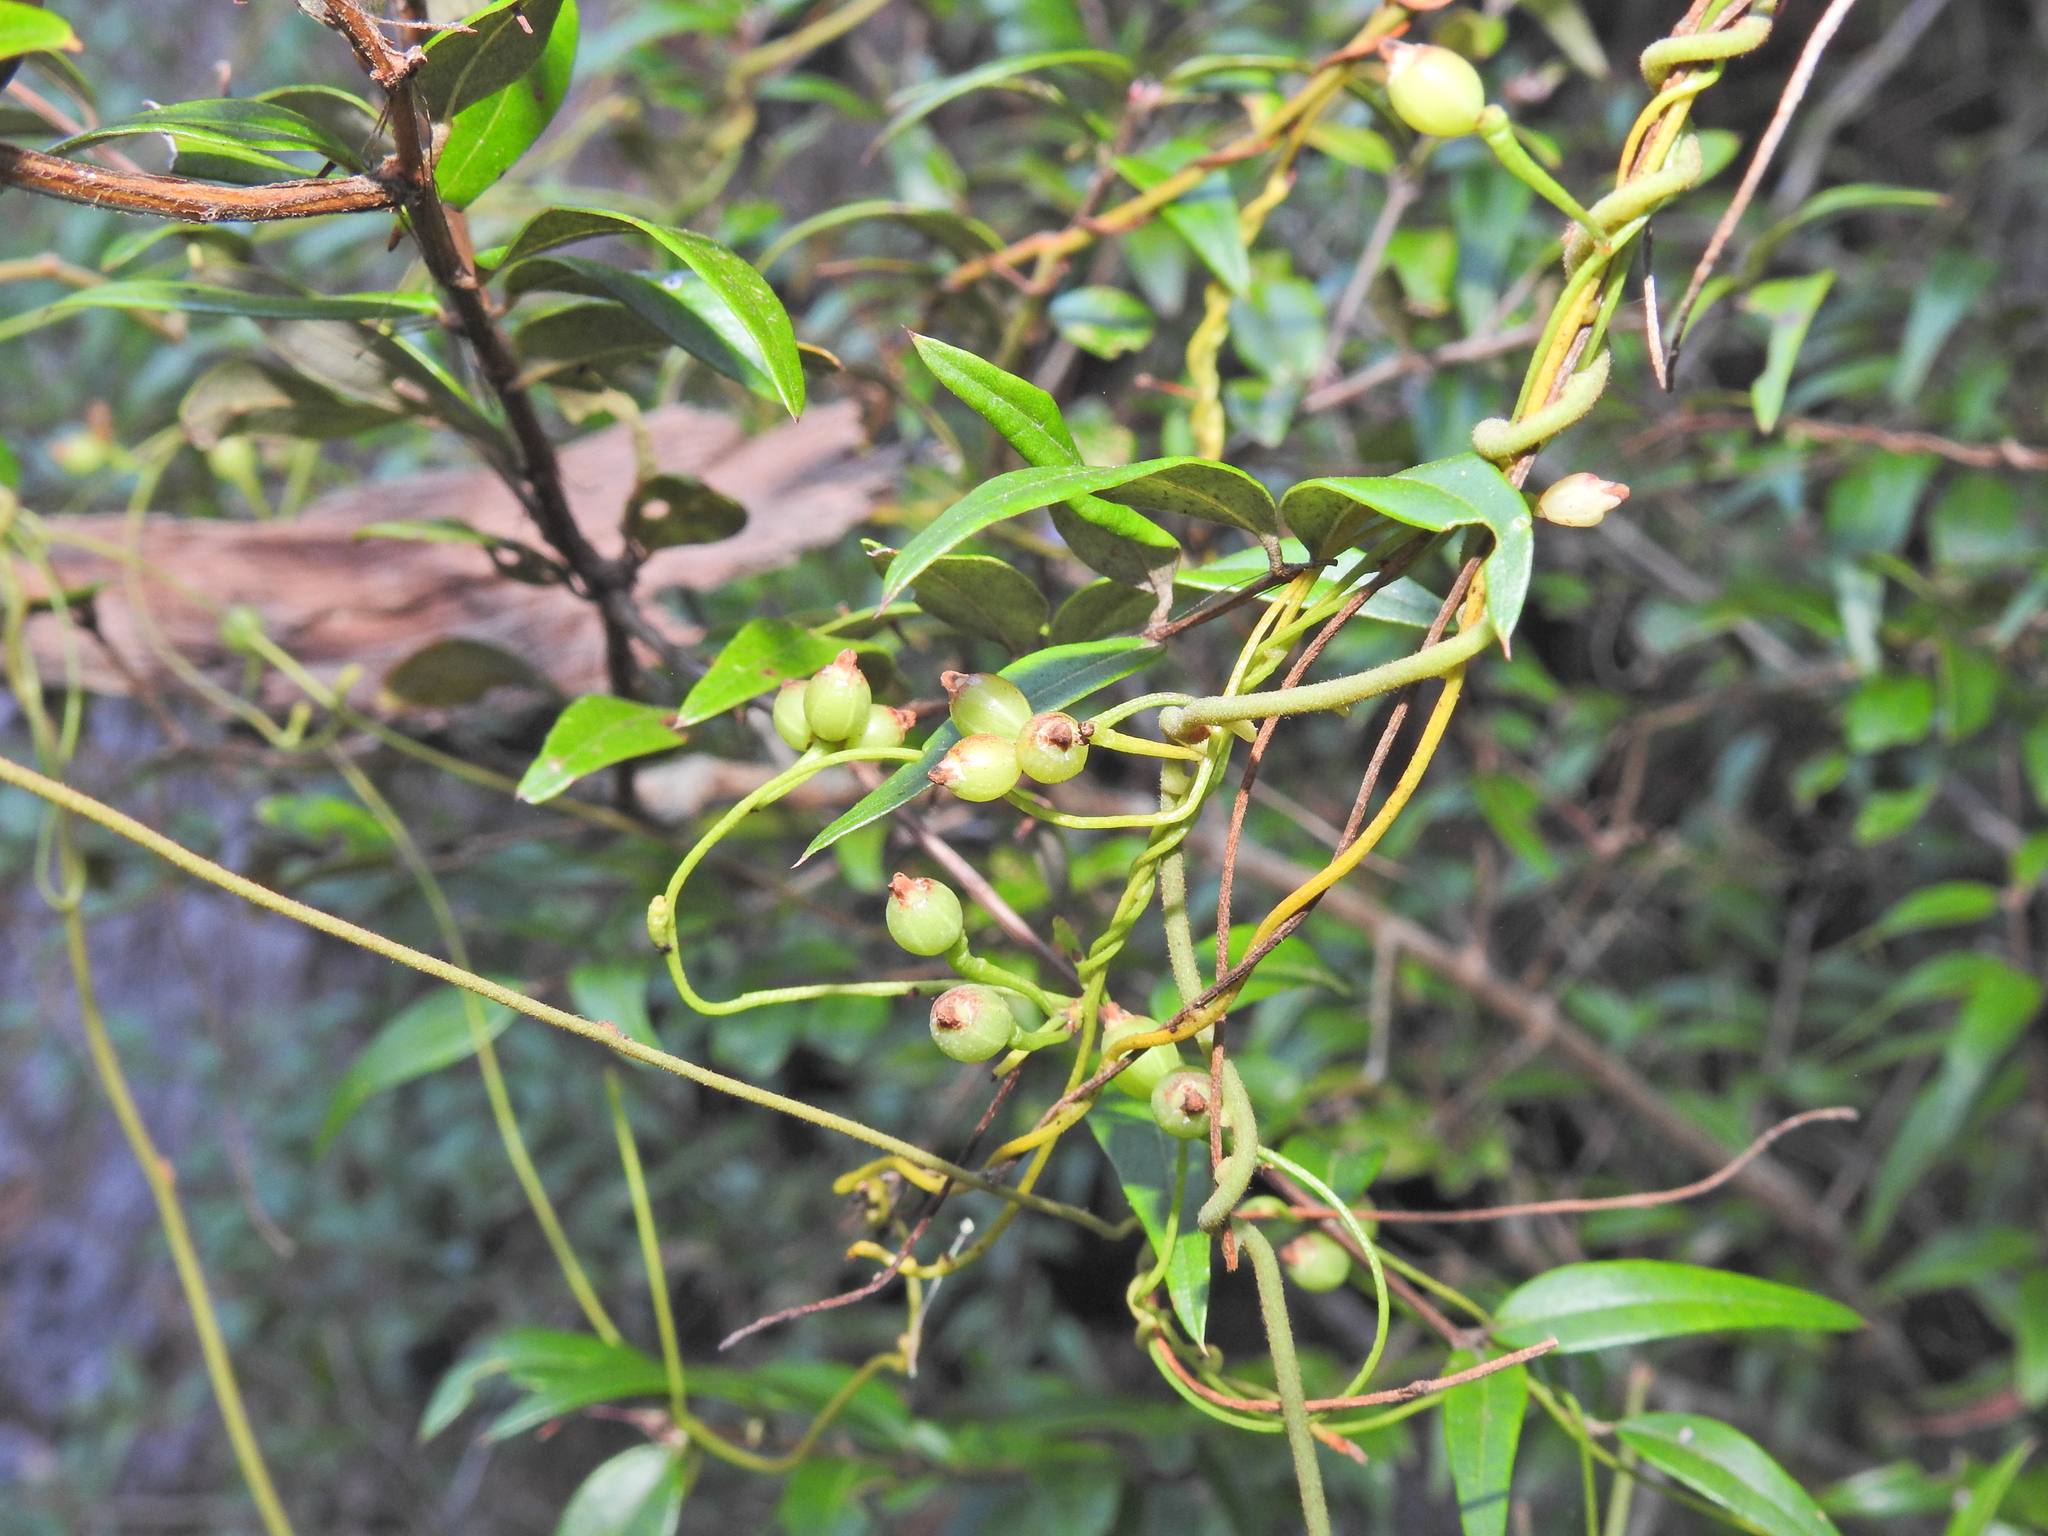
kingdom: Plantae
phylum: Tracheophyta
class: Magnoliopsida
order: Laurales
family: Lauraceae
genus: Cassytha
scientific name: Cassytha glabella
